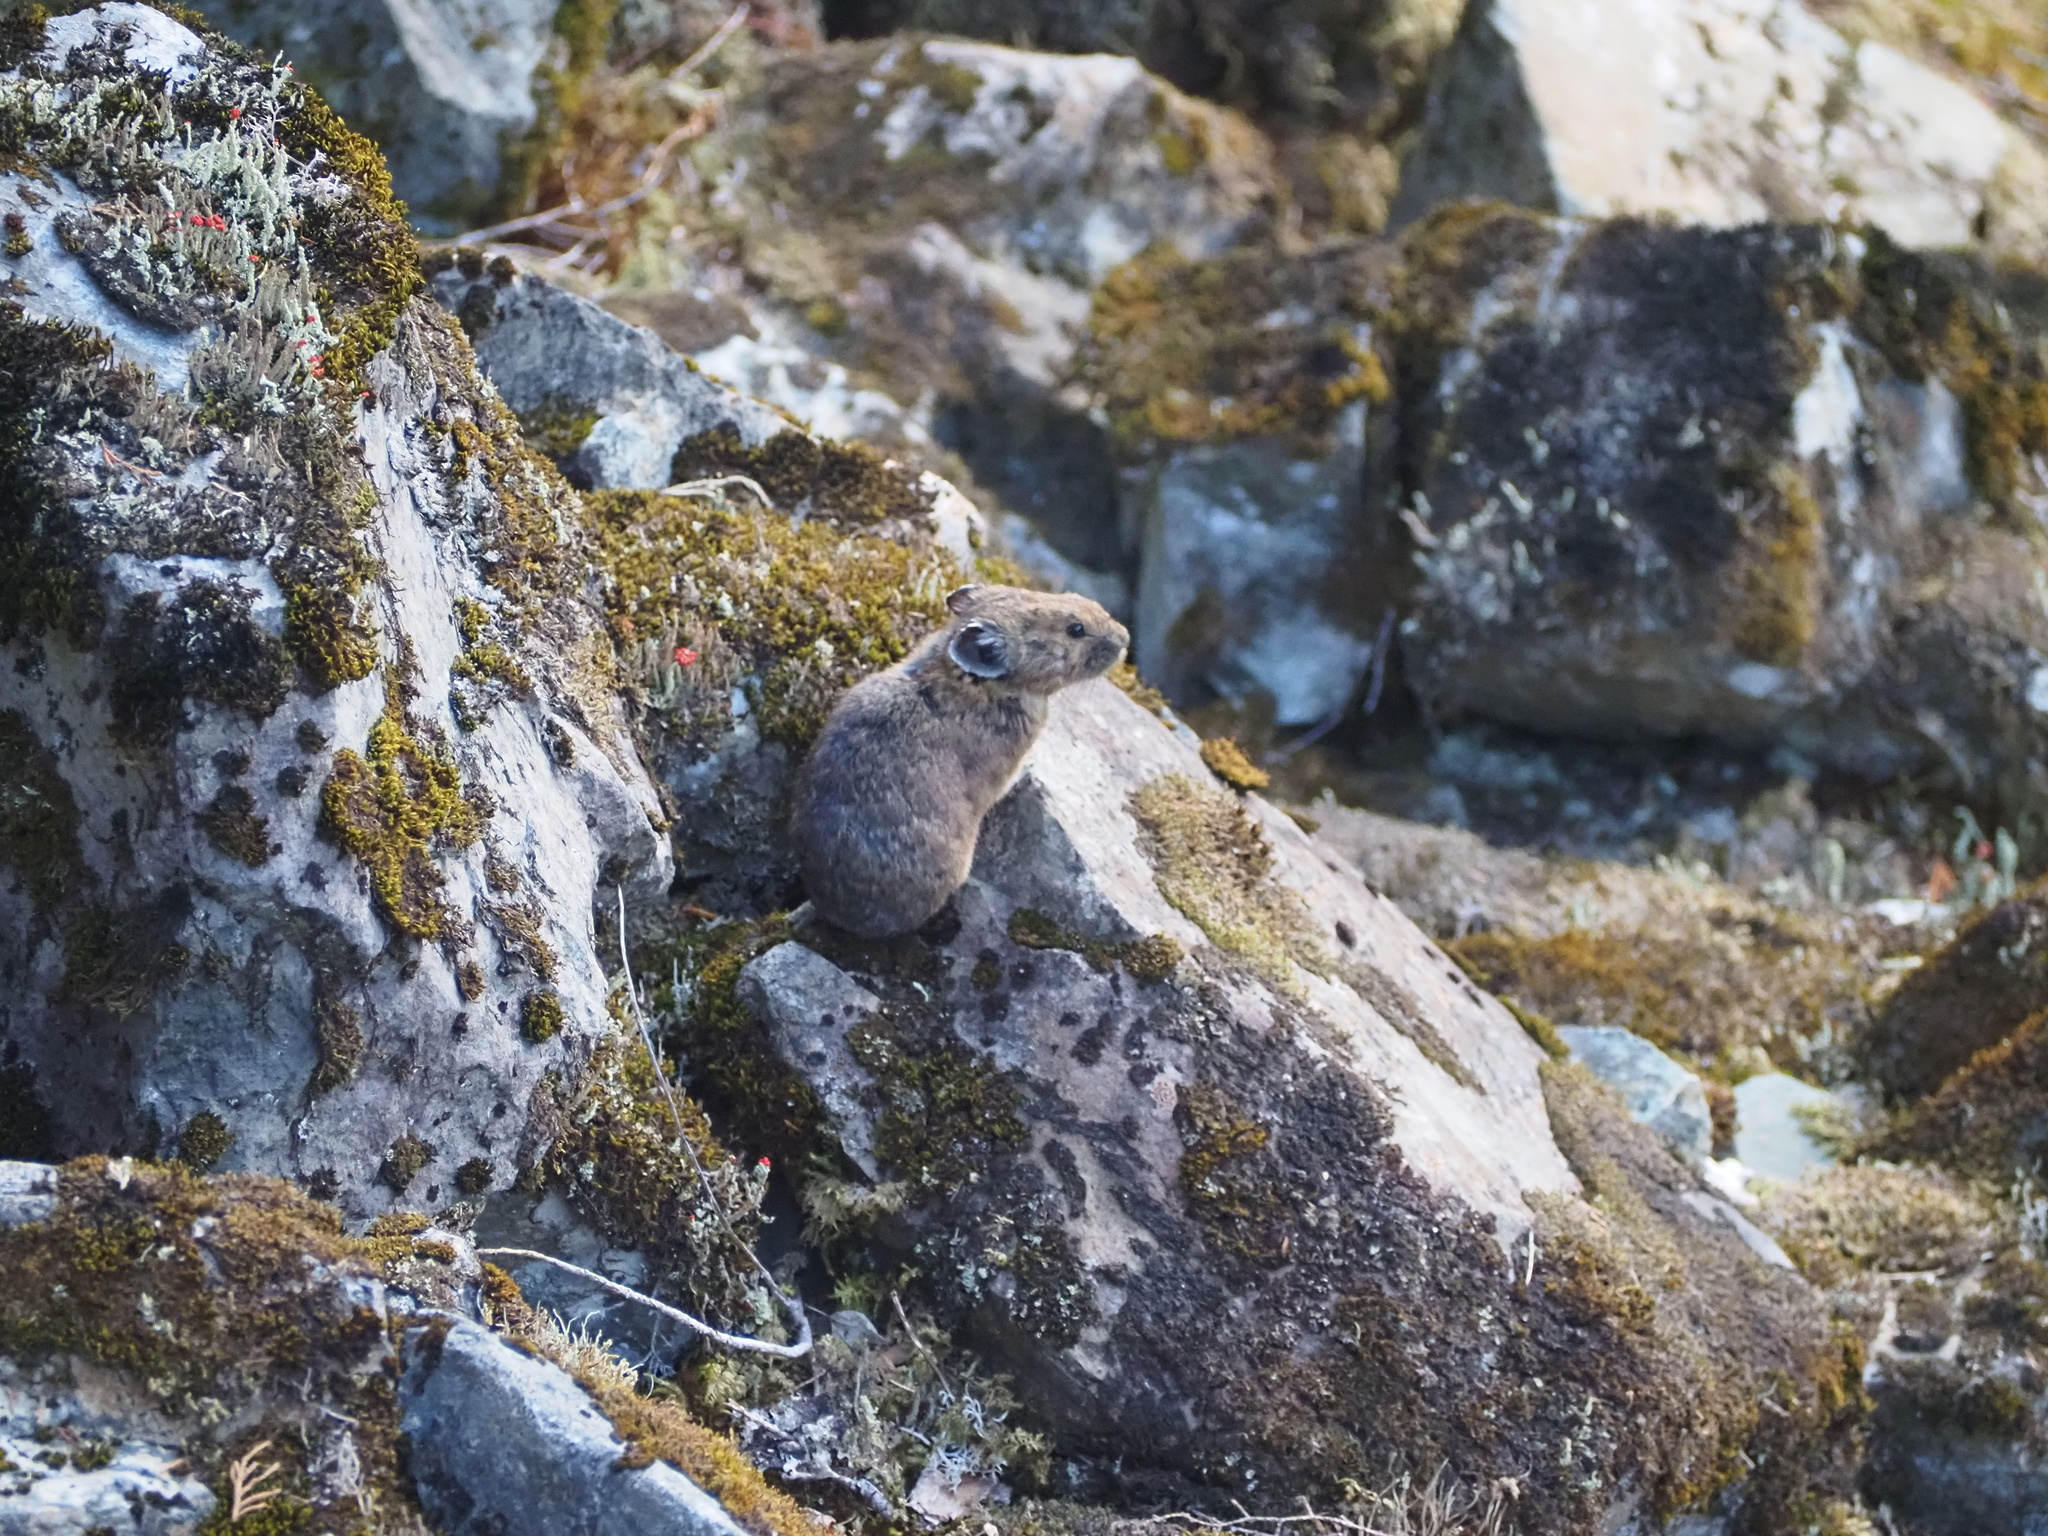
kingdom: Animalia
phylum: Chordata
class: Mammalia
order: Lagomorpha
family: Ochotonidae
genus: Ochotona
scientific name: Ochotona princeps
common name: American pika
